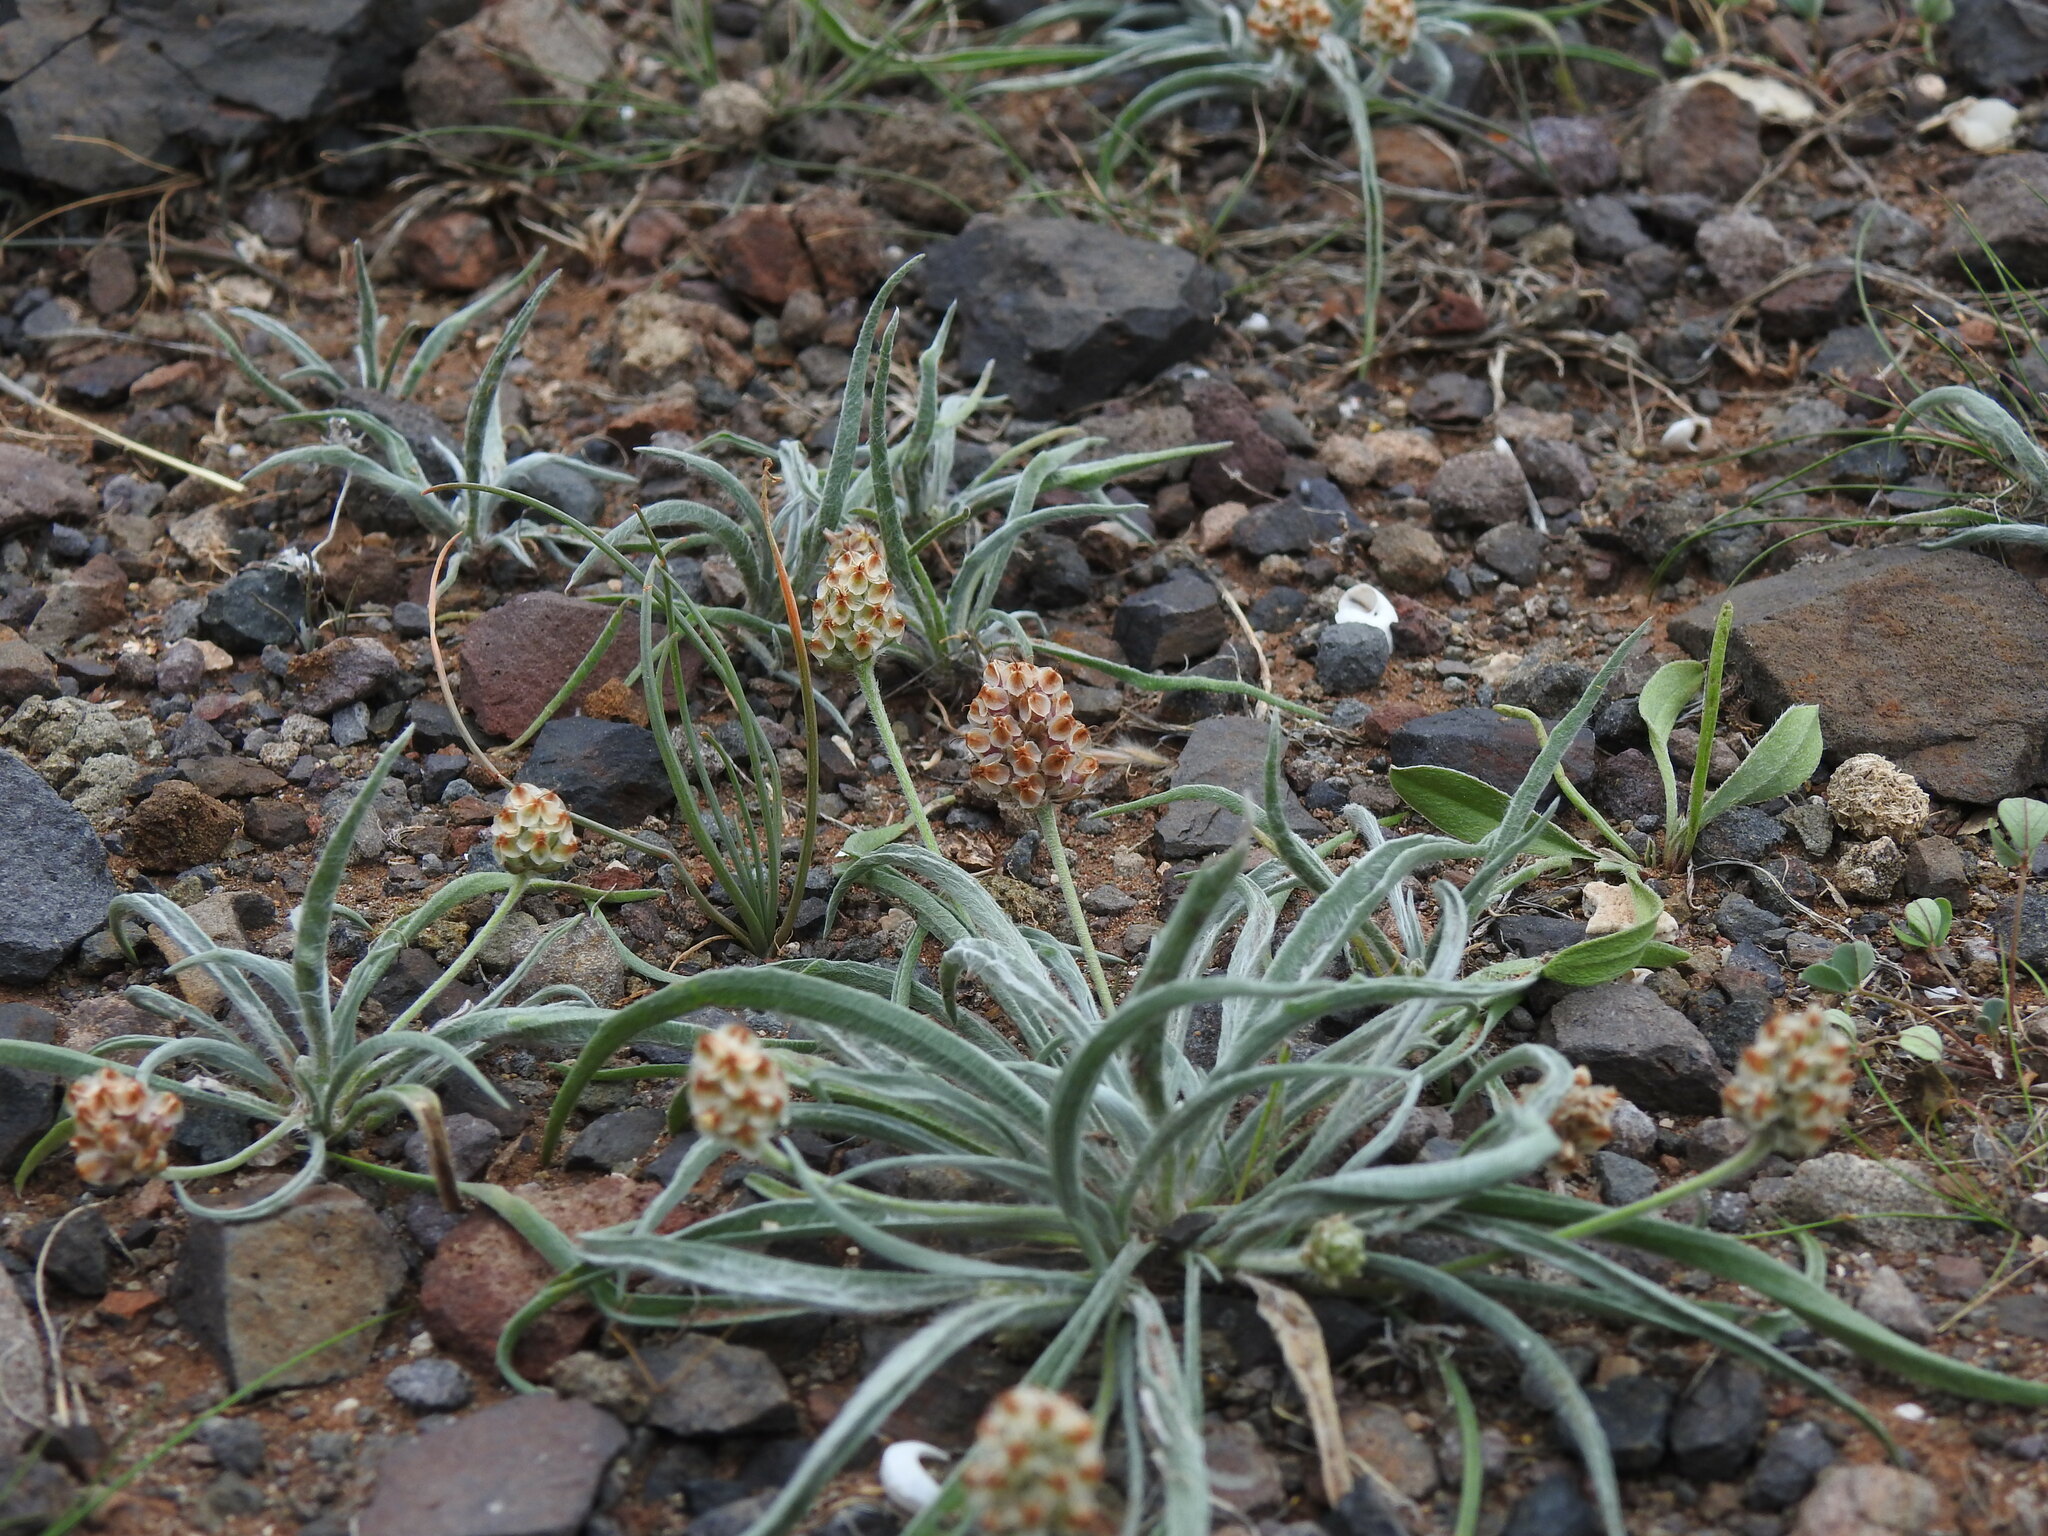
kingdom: Plantae
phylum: Tracheophyta
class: Magnoliopsida
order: Lamiales
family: Plantaginaceae
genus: Plantago
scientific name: Plantago ovata
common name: Blond plantain
